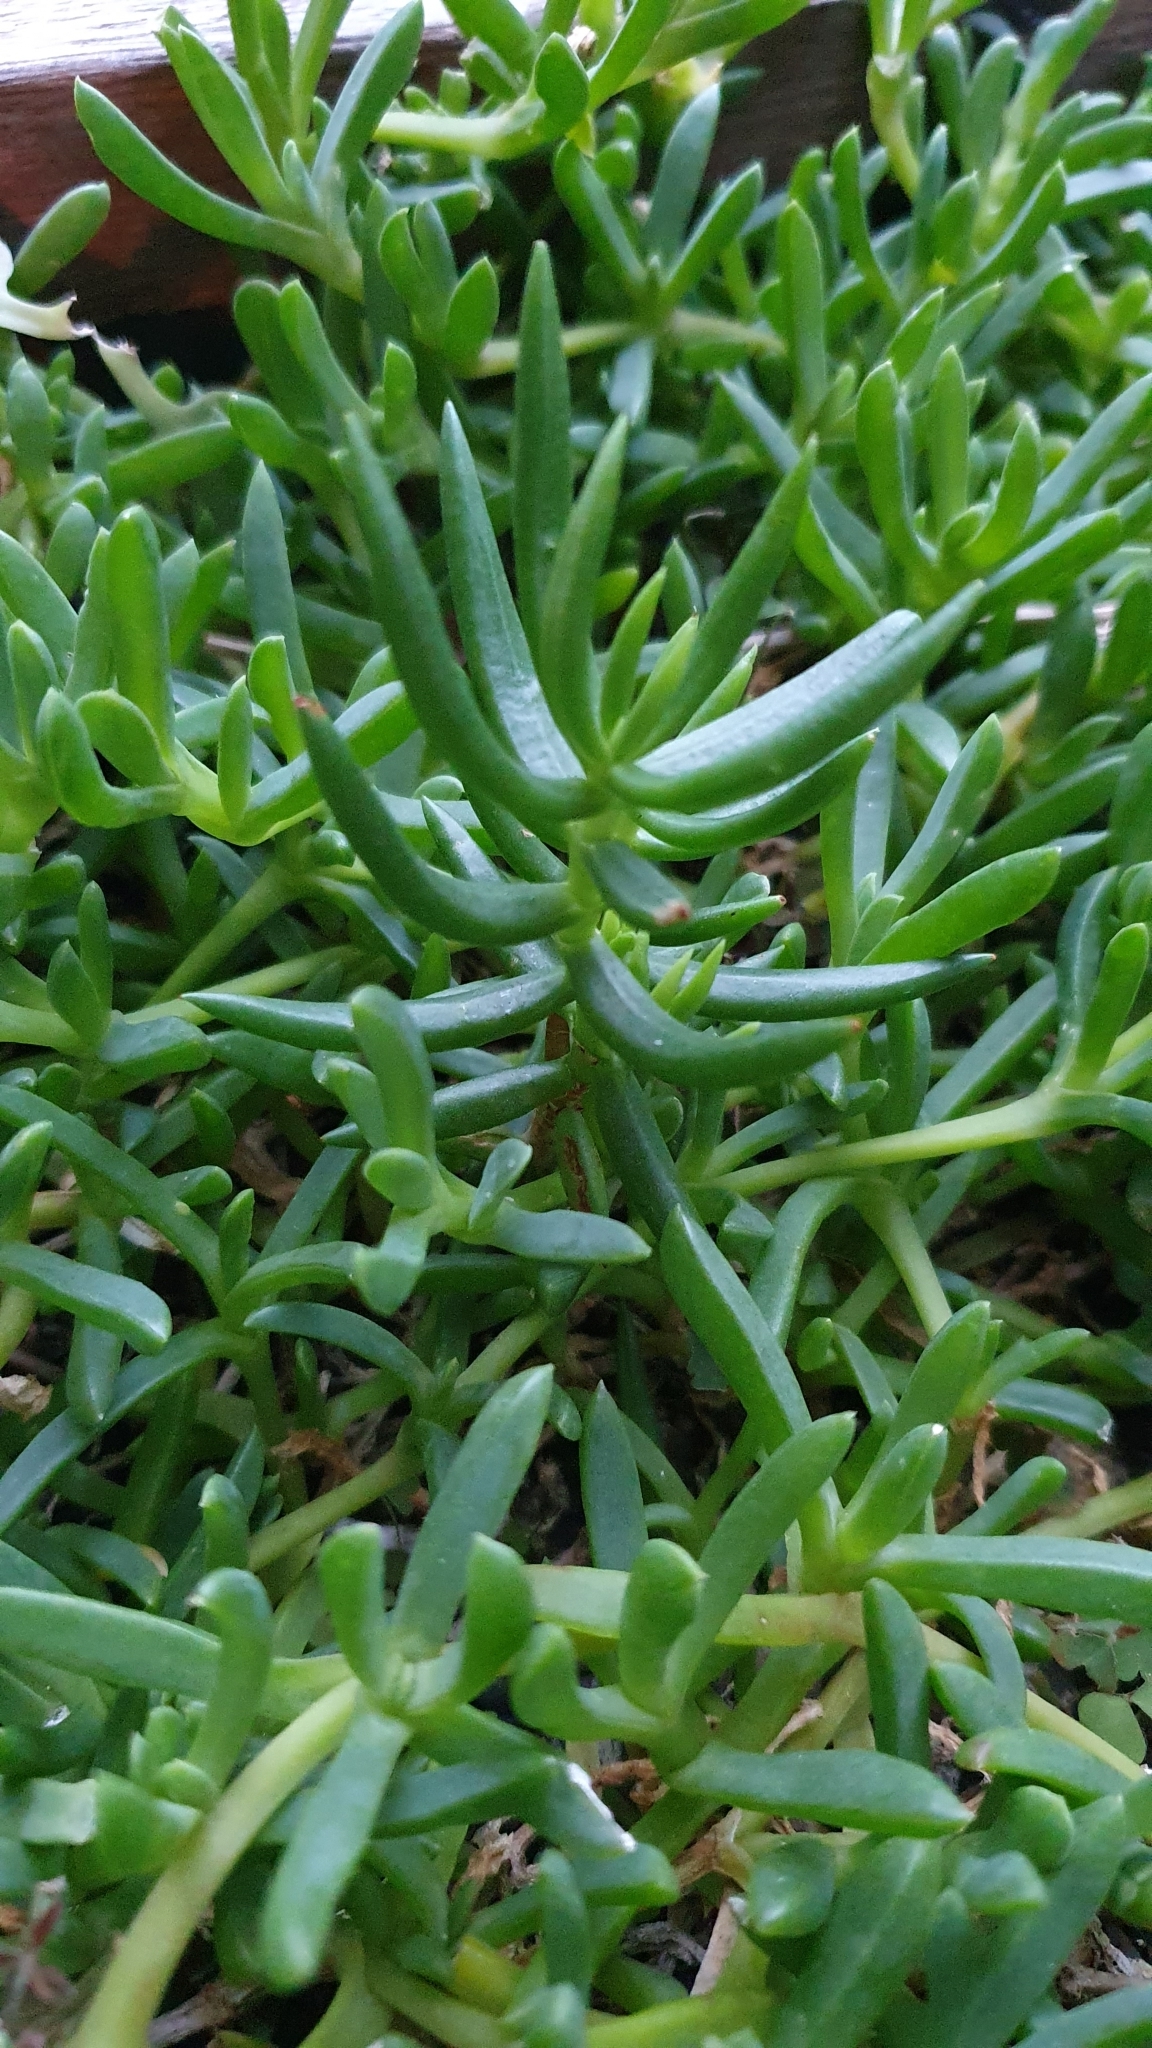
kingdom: Plantae
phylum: Tracheophyta
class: Magnoliopsida
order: Caryophyllales
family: Aizoaceae
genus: Disphyma
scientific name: Disphyma australe
